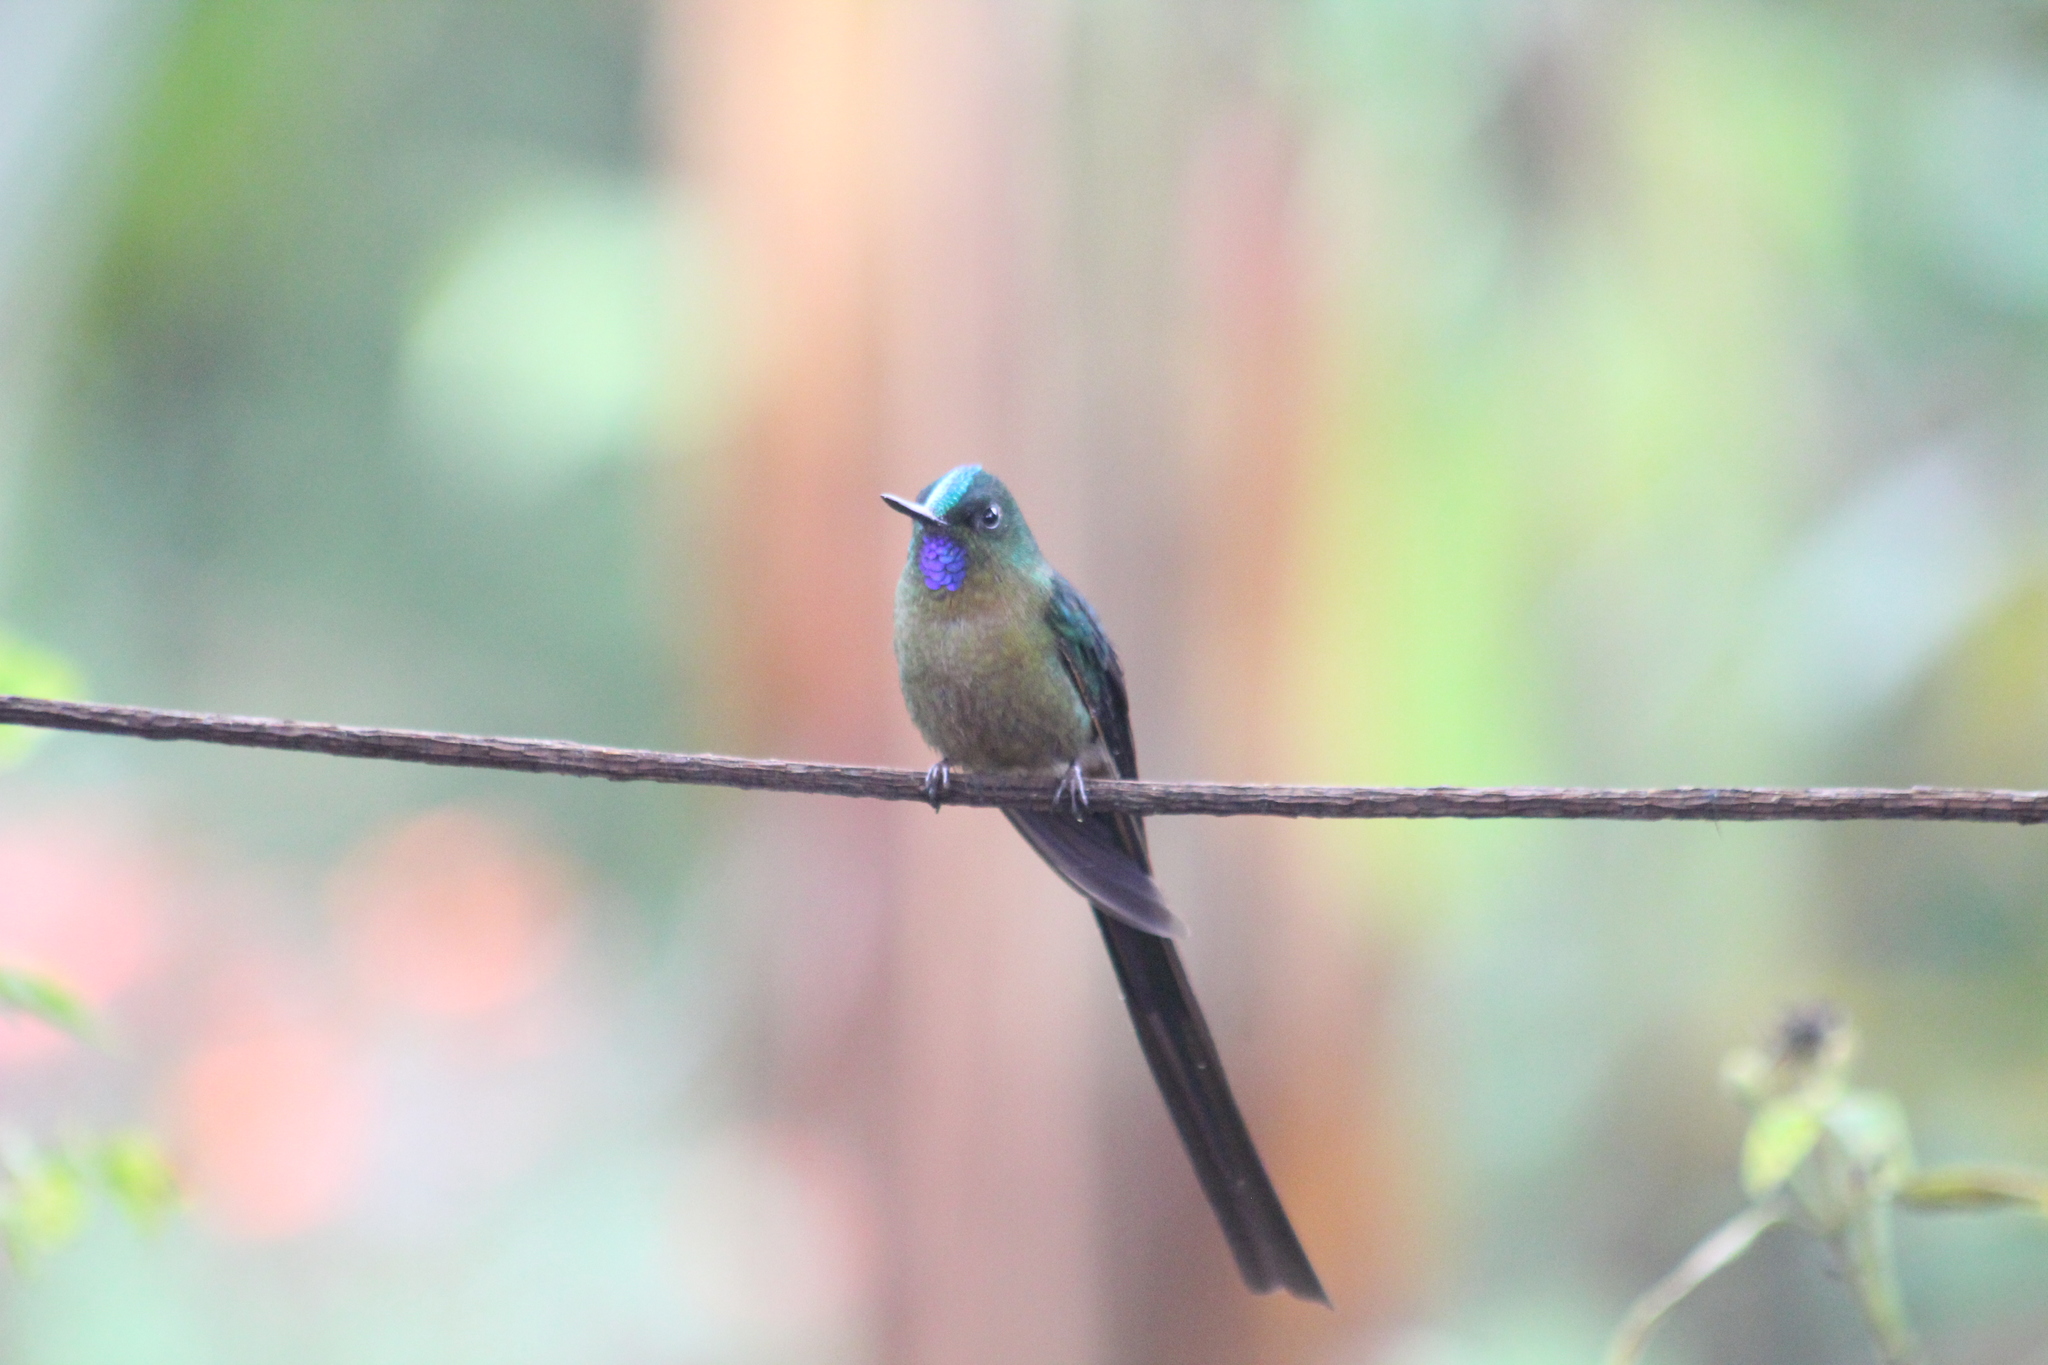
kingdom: Animalia
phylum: Chordata
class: Aves
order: Apodiformes
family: Trochilidae
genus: Aglaiocercus
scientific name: Aglaiocercus coelestis
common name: Violet-tailed sylph
